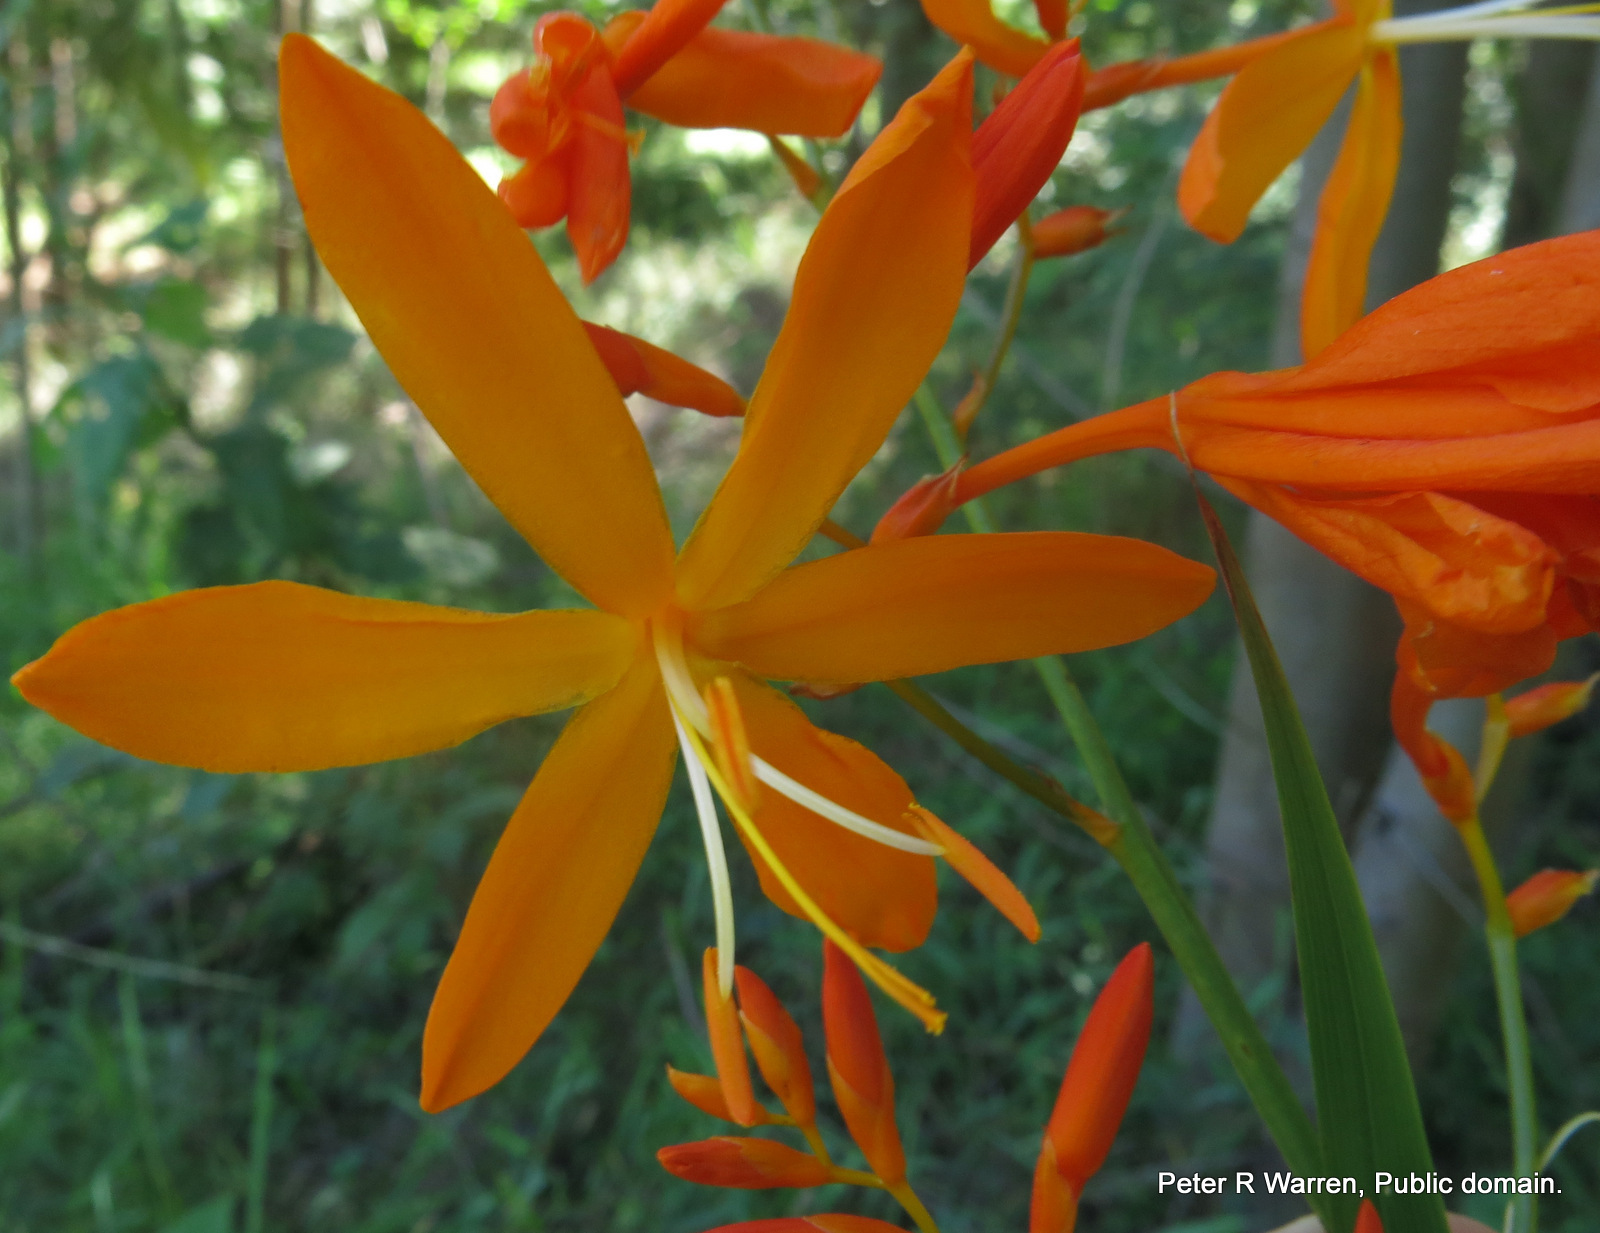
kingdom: Plantae
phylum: Tracheophyta
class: Liliopsida
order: Asparagales
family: Iridaceae
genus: Crocosmia
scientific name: Crocosmia aurea
